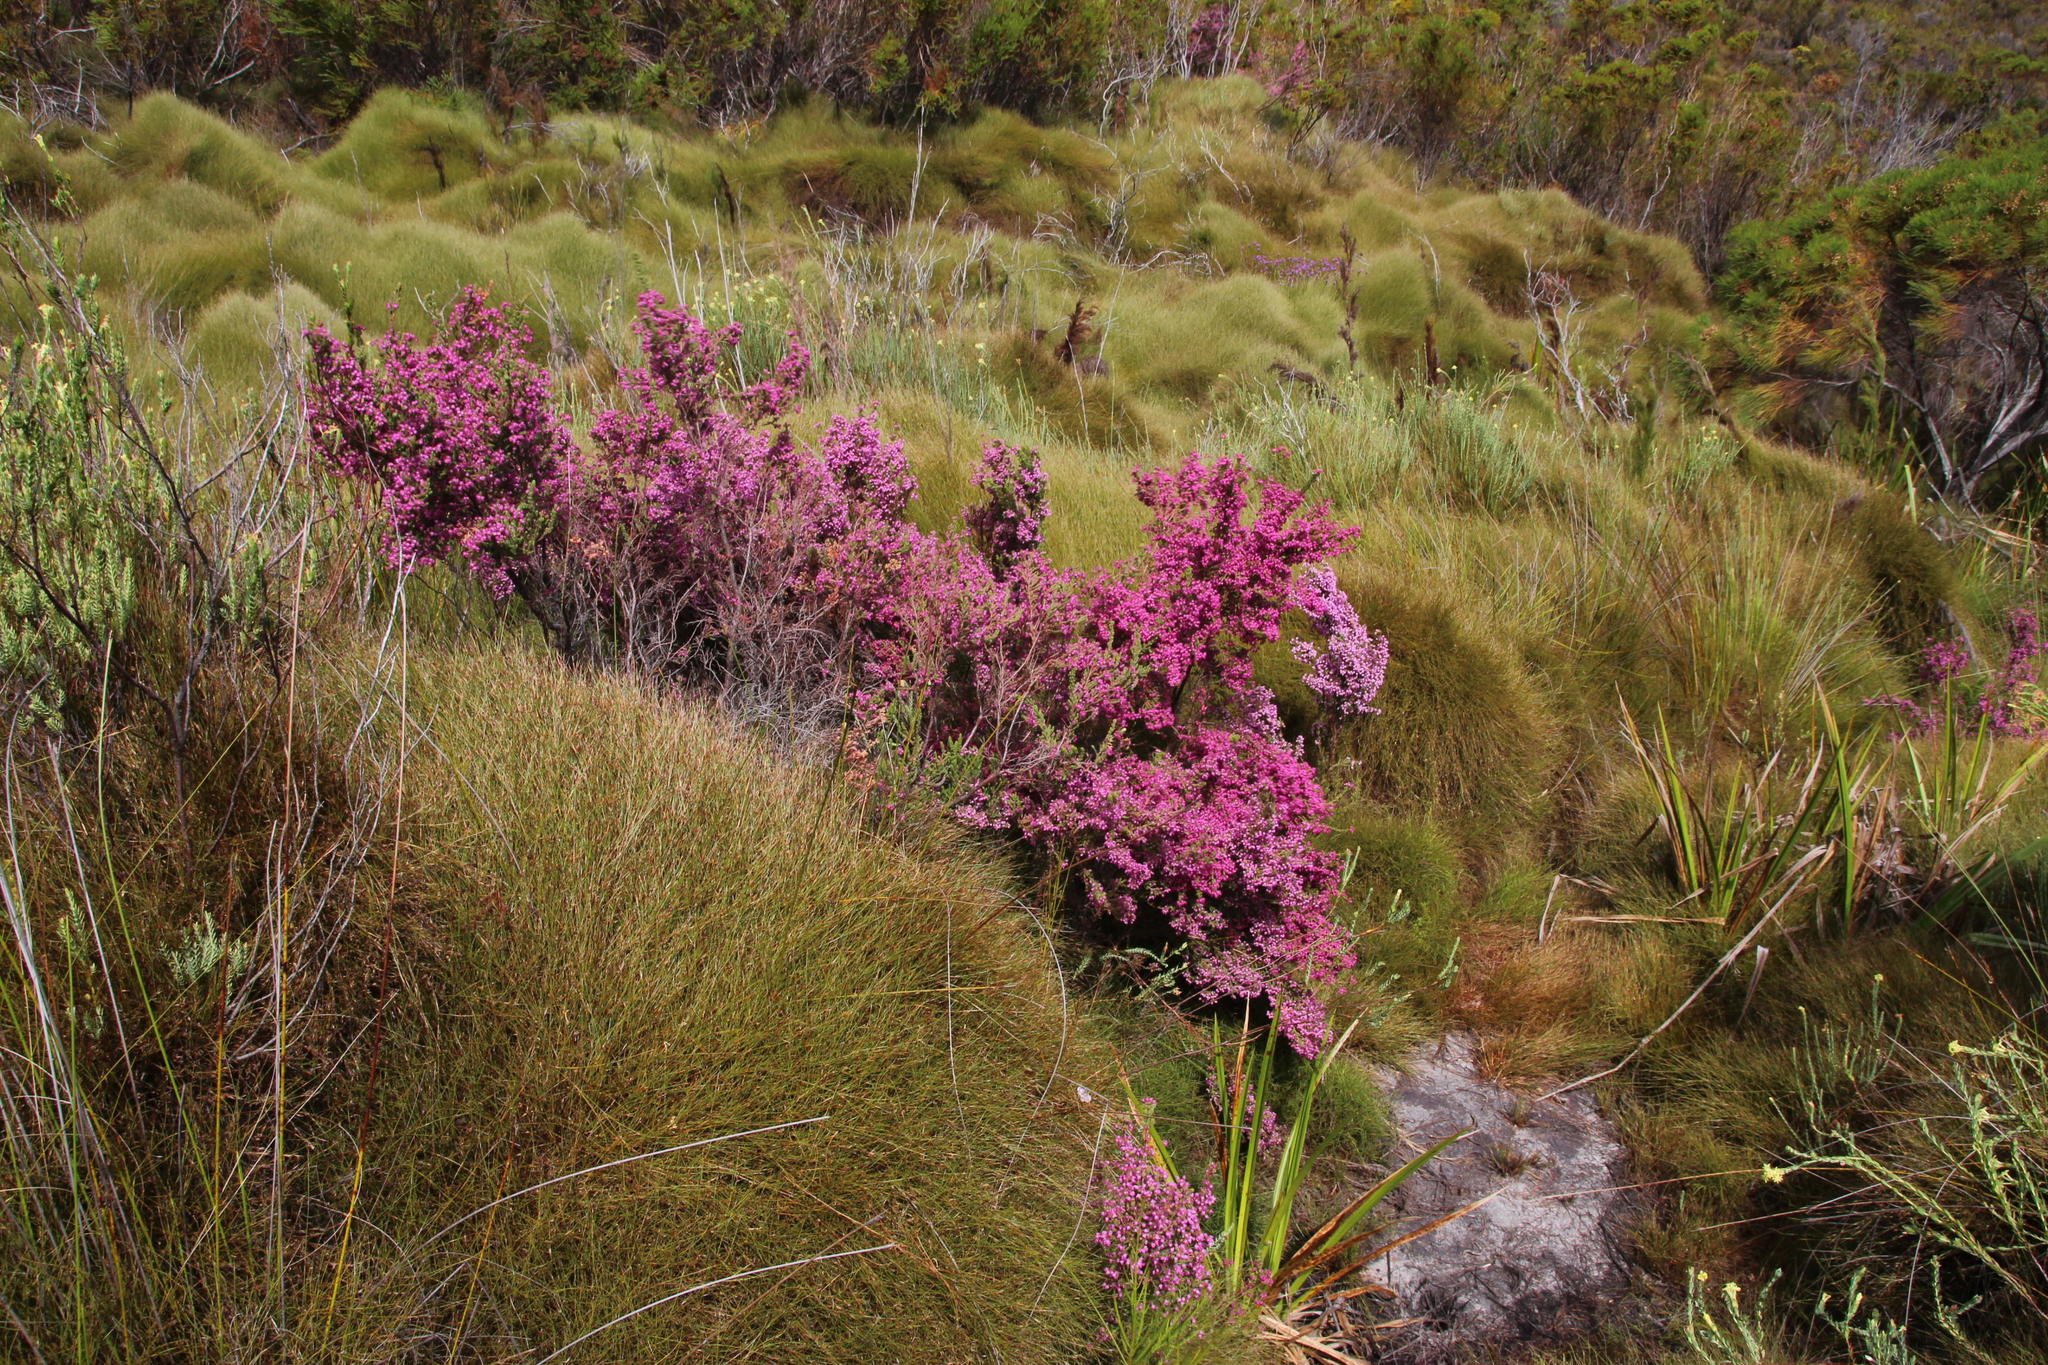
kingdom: Plantae
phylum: Tracheophyta
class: Magnoliopsida
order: Ericales
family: Ericaceae
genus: Erica
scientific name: Erica bergiana
